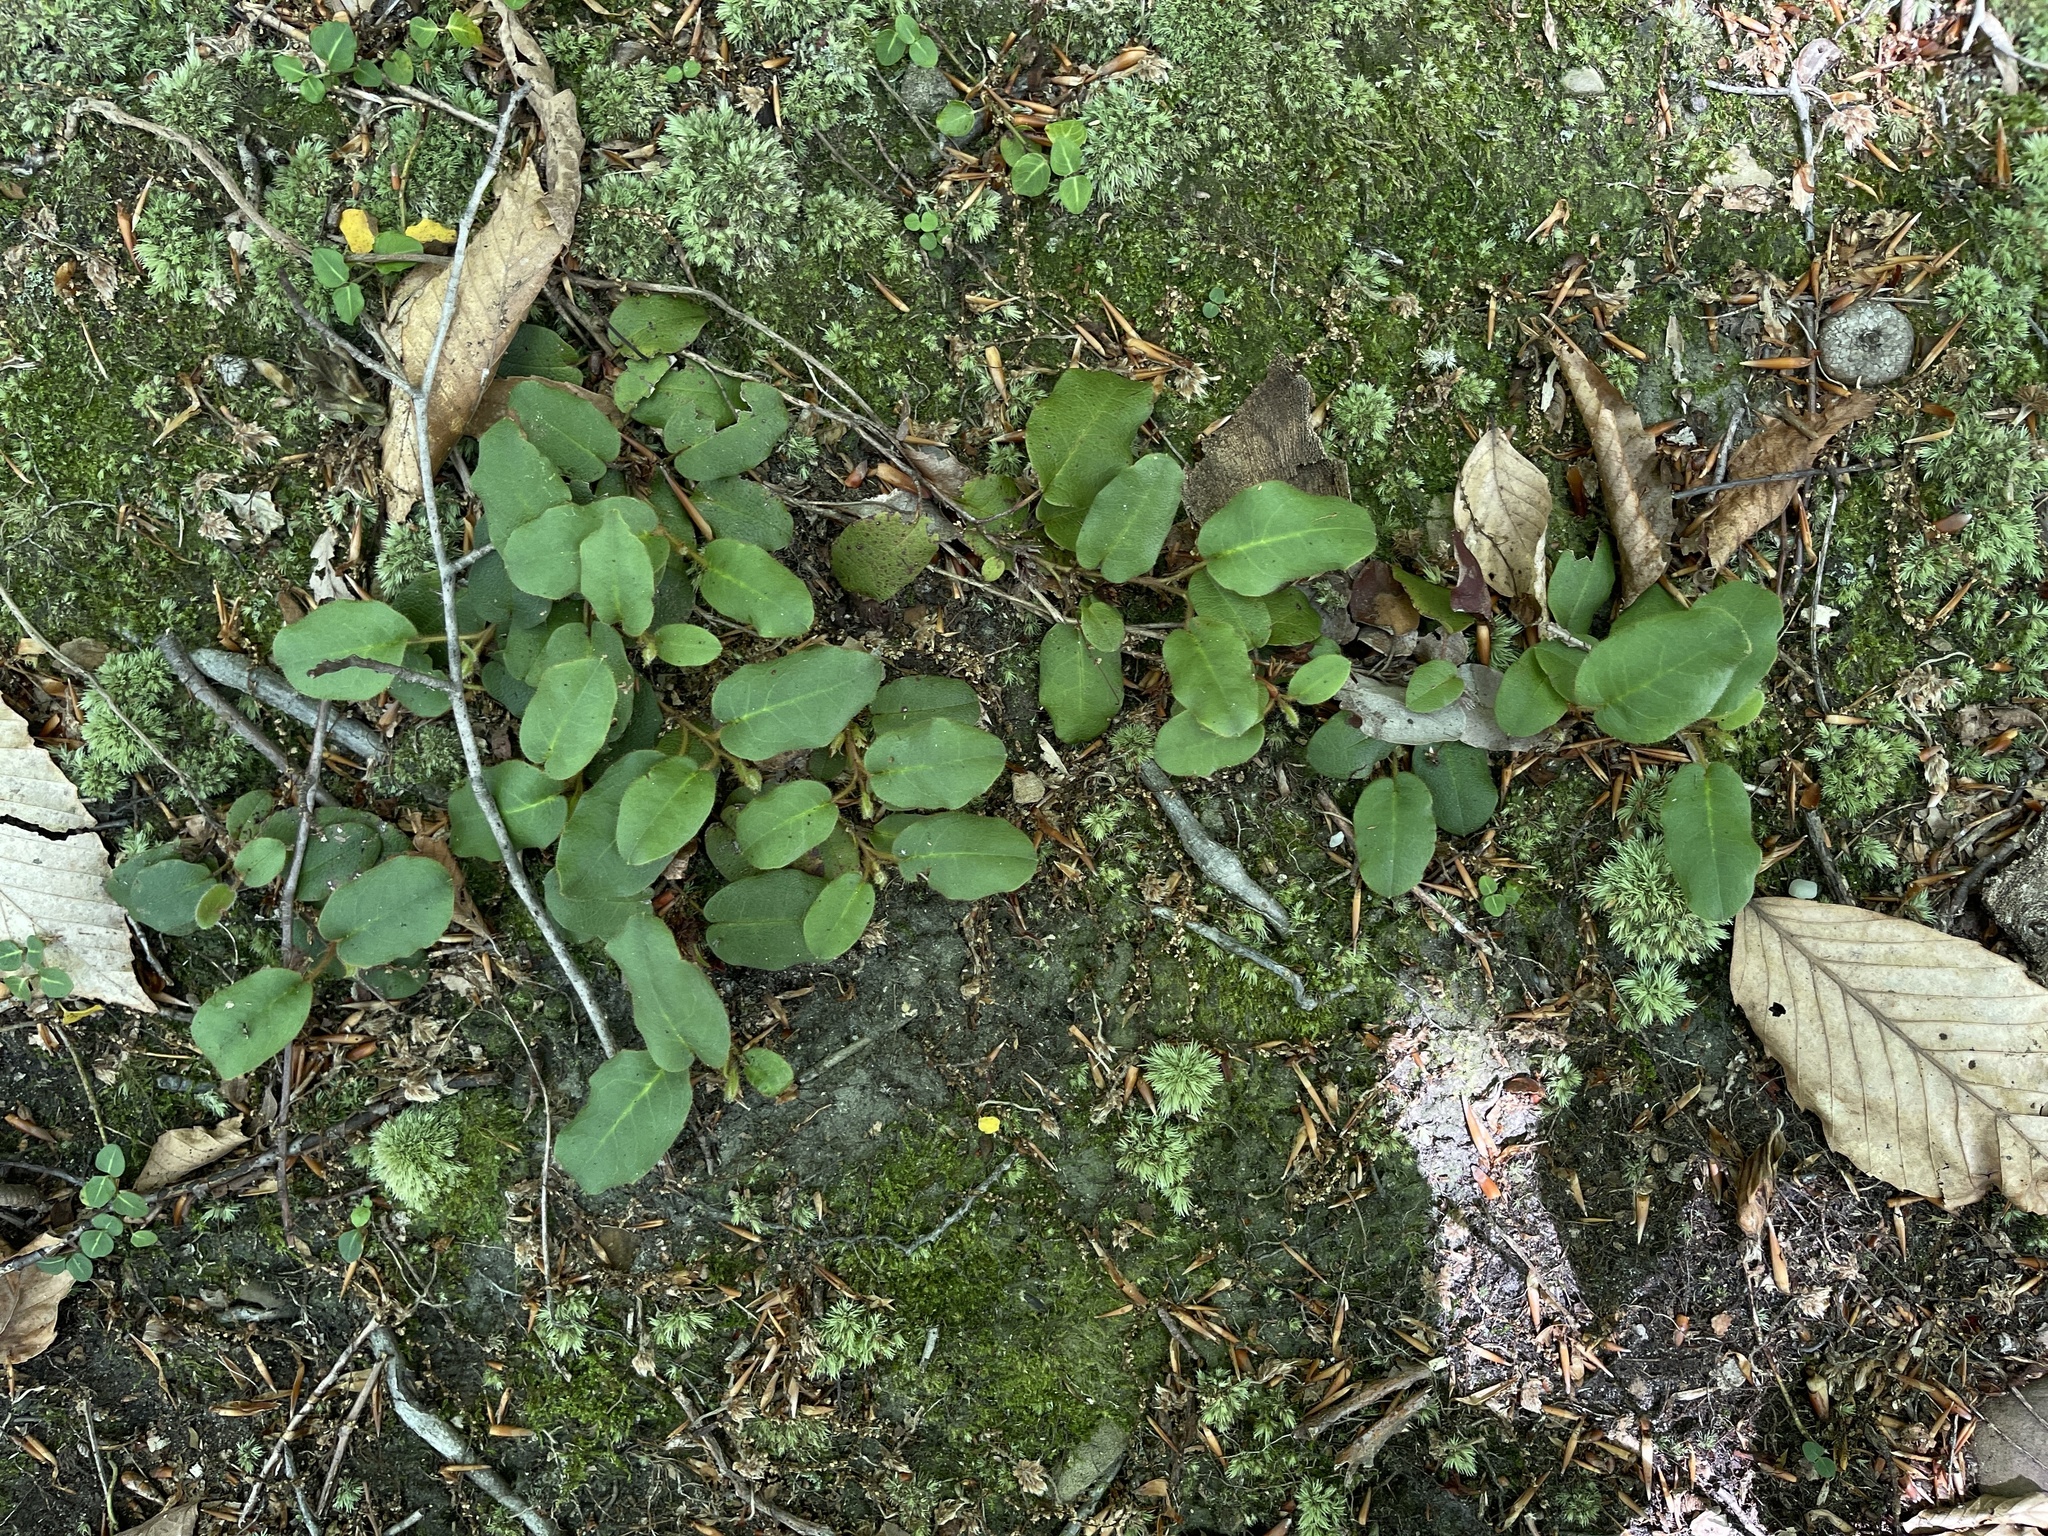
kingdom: Plantae
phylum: Tracheophyta
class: Magnoliopsida
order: Ericales
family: Ericaceae
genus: Epigaea
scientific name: Epigaea repens
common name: Gravelroot
